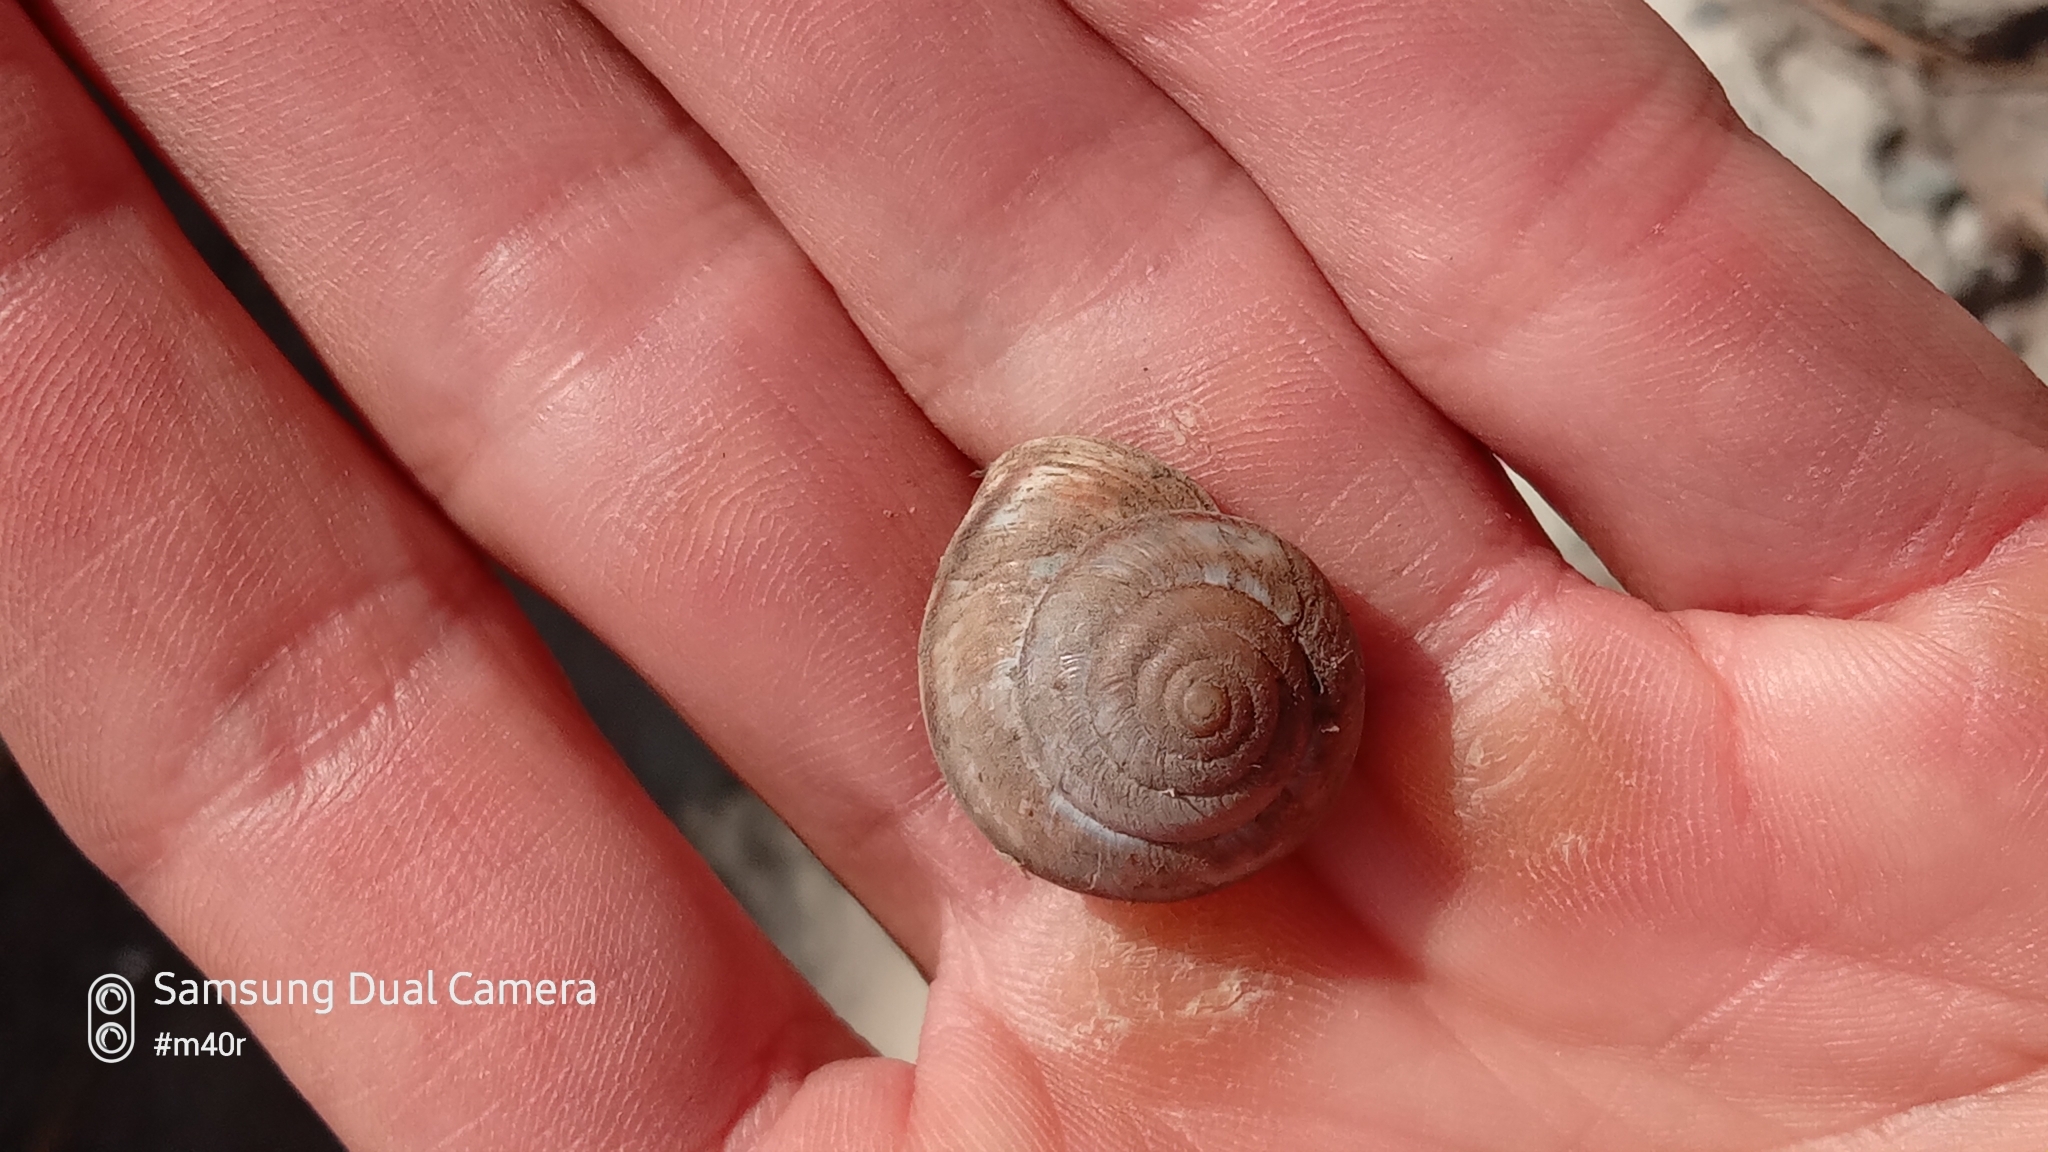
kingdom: Animalia
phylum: Mollusca
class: Gastropoda
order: Stylommatophora
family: Camaenidae
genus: Fruticicola
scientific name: Fruticicola lantzi
